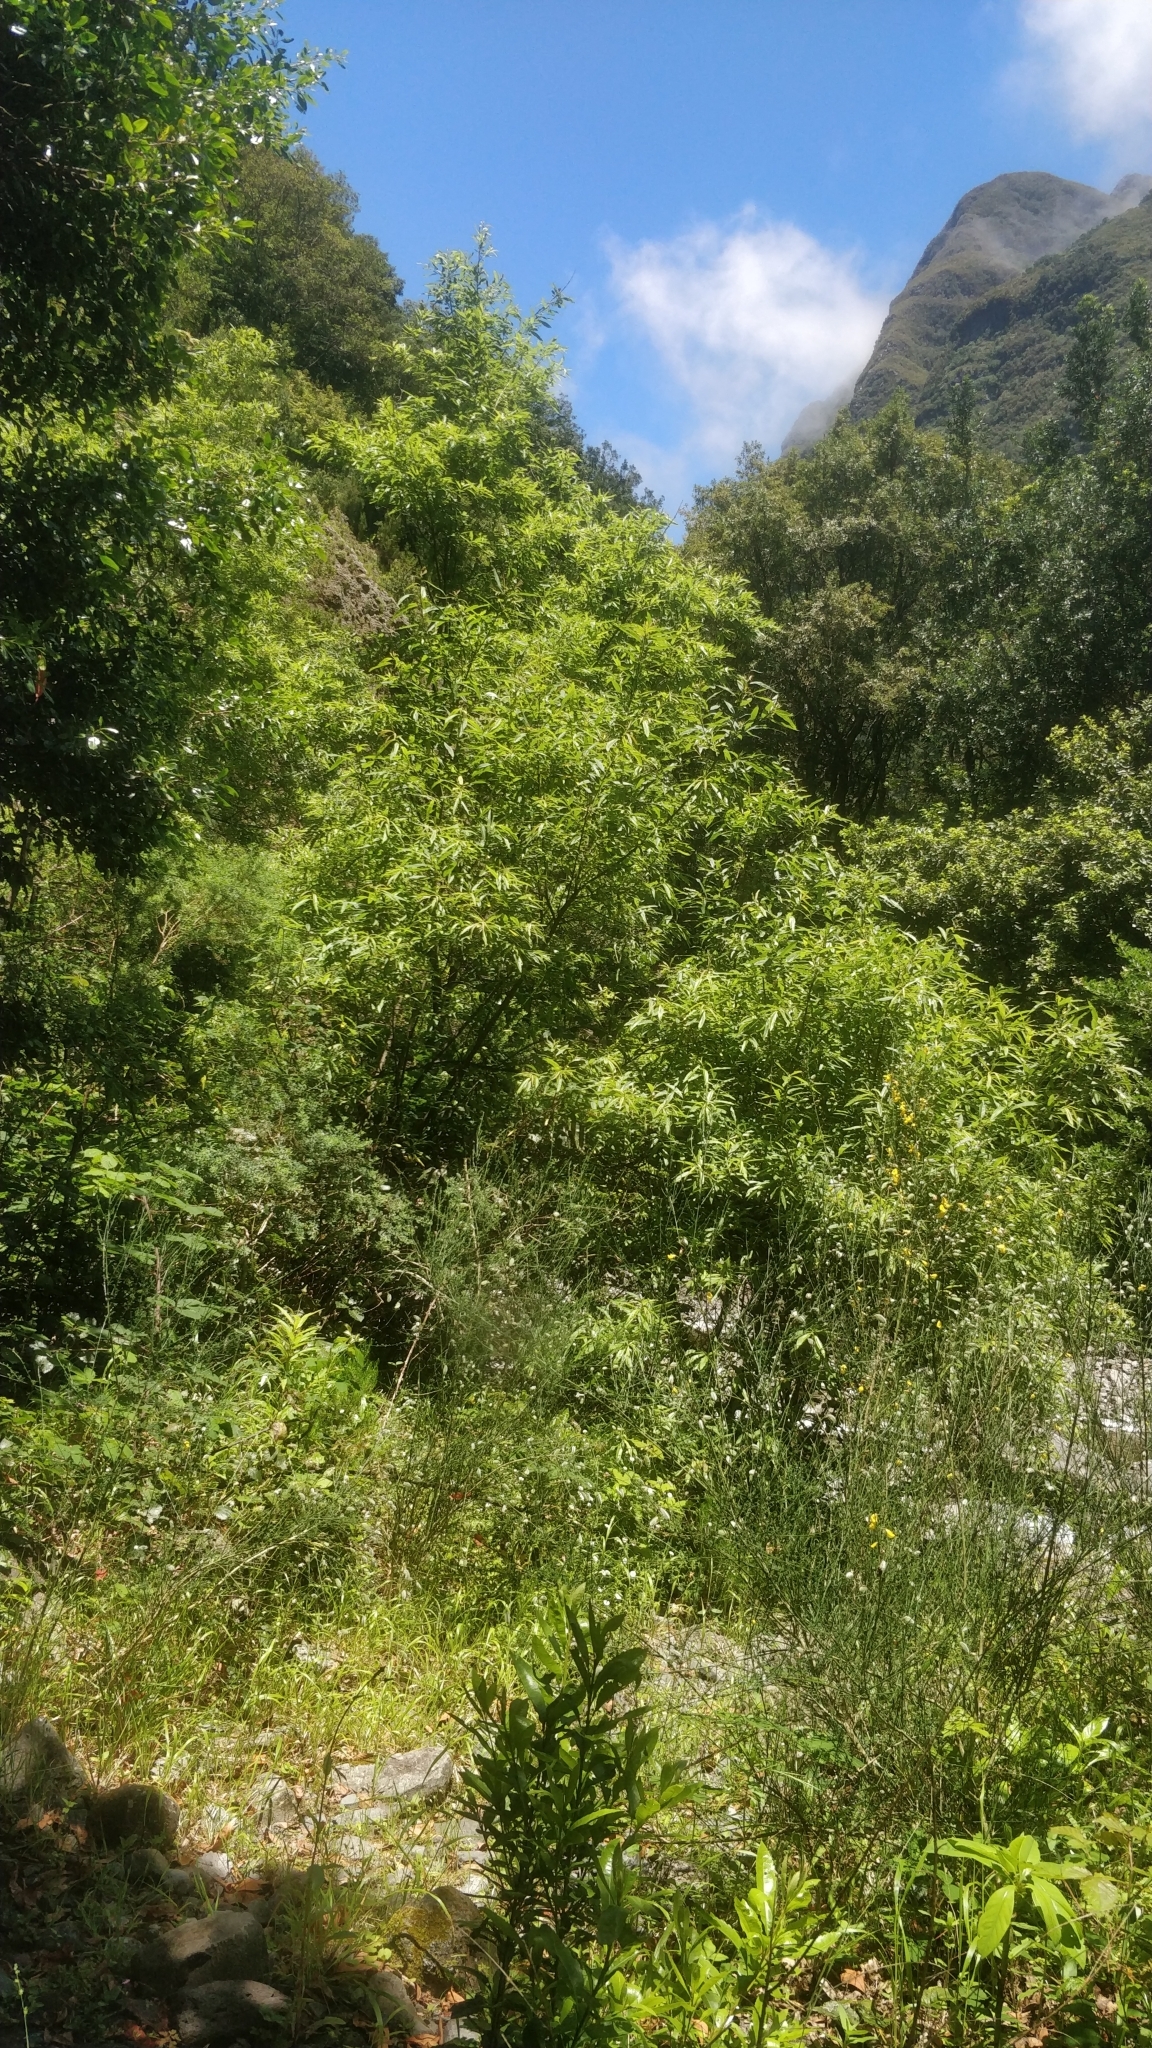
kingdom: Plantae
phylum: Tracheophyta
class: Magnoliopsida
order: Malpighiales
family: Salicaceae
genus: Salix
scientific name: Salix canariensis
